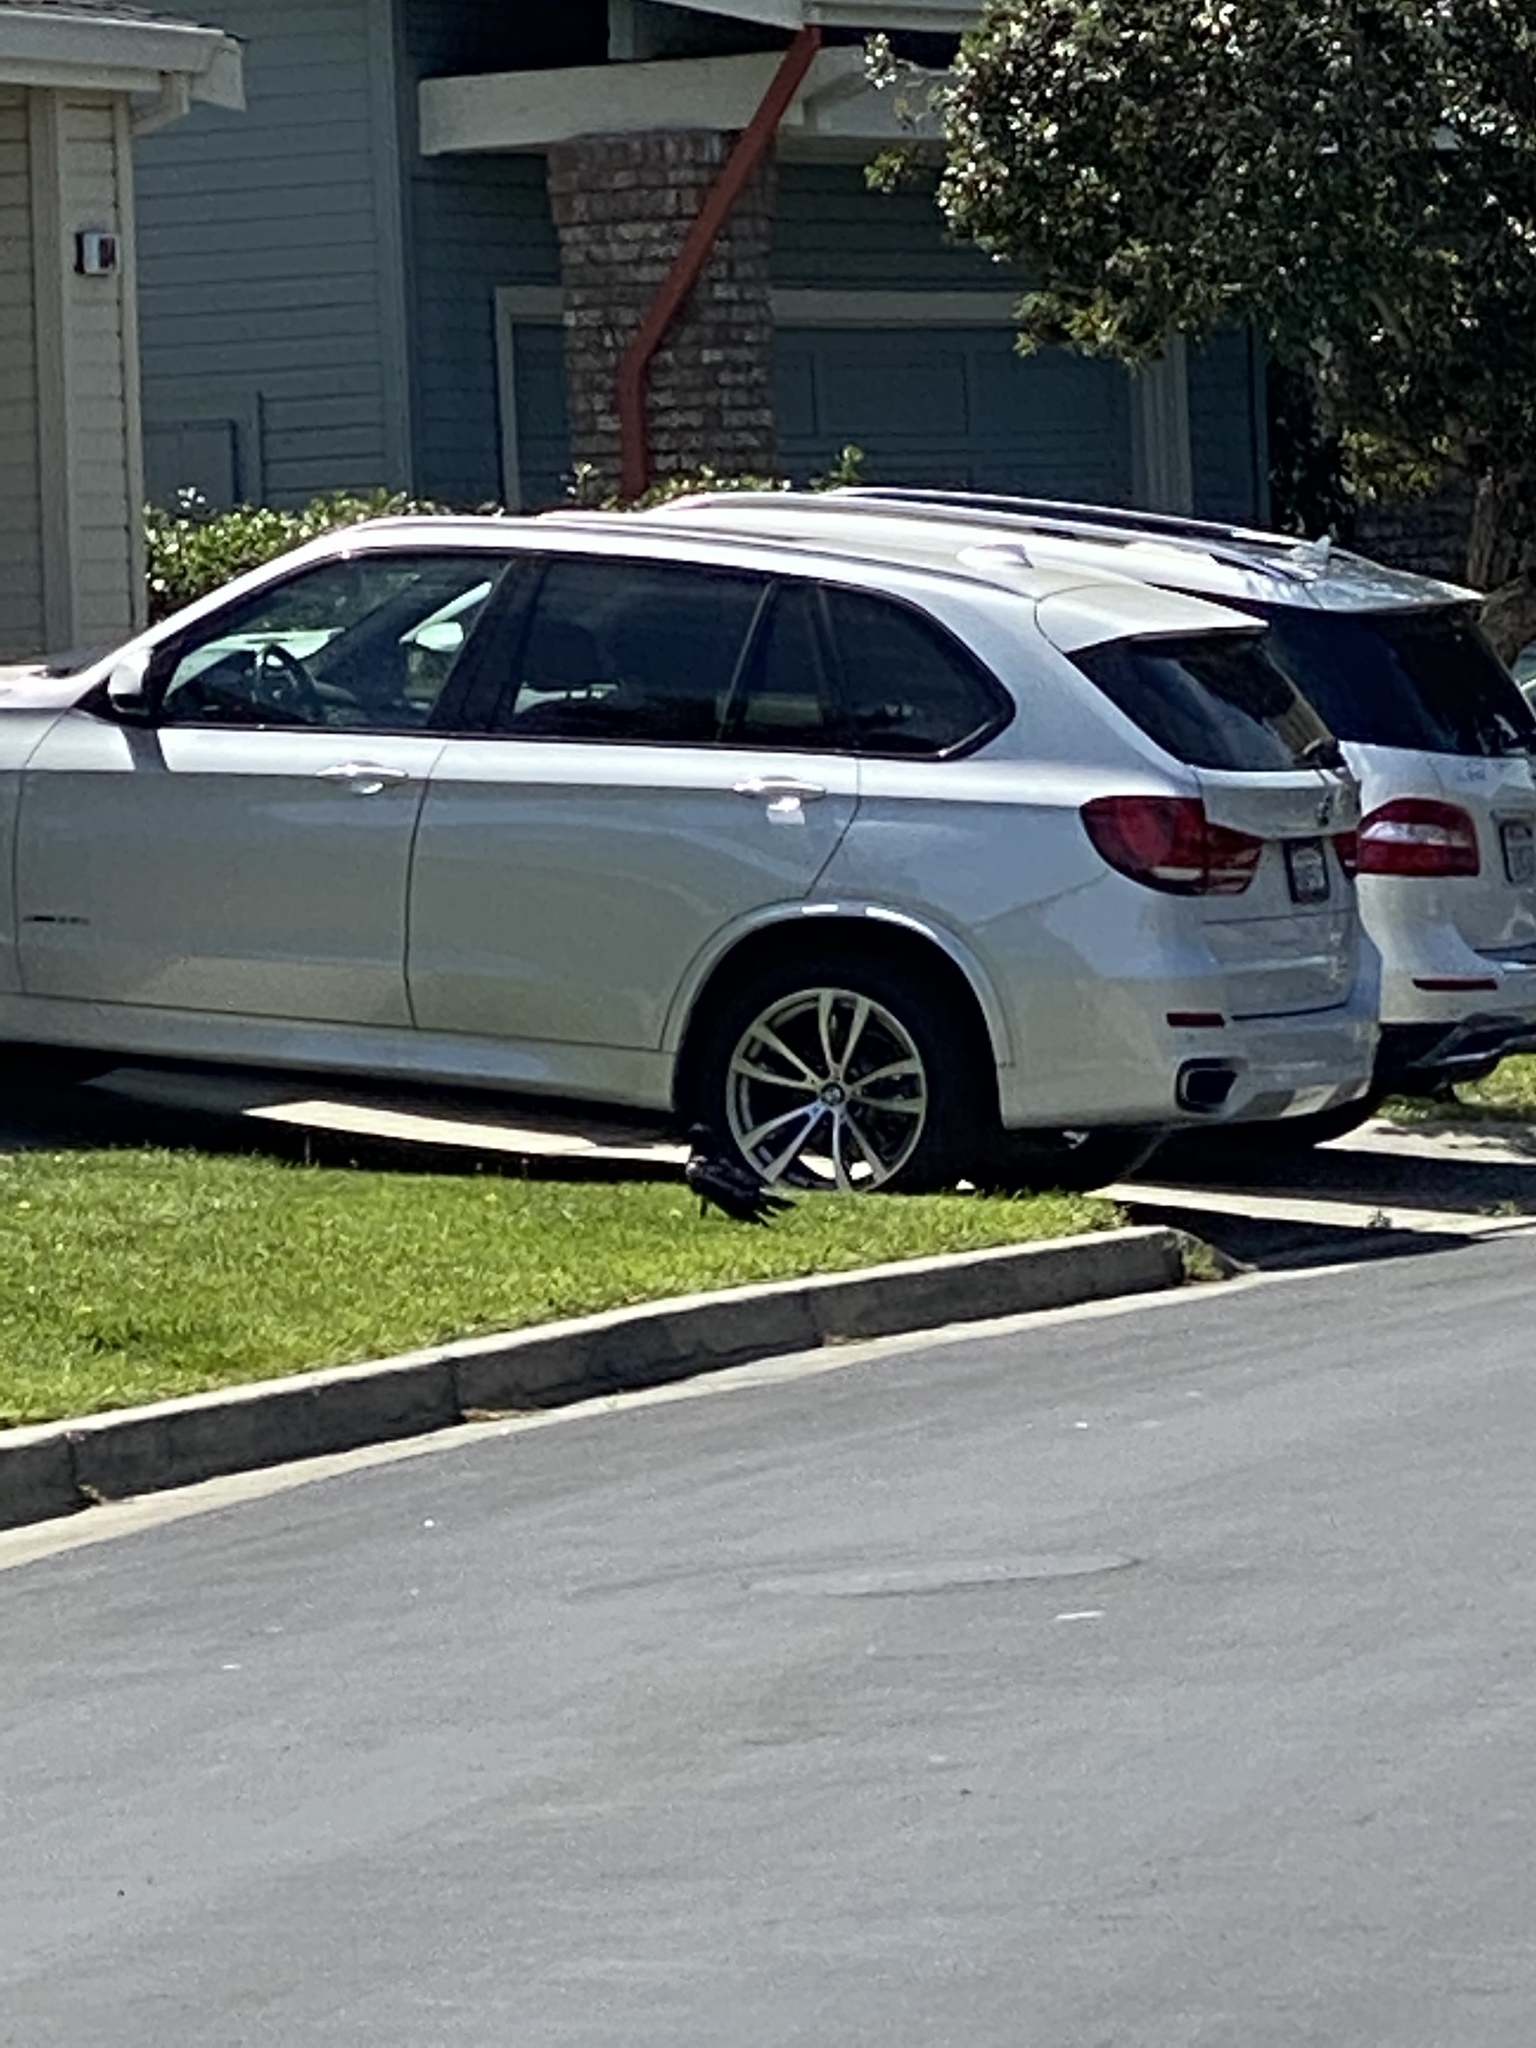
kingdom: Animalia
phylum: Chordata
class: Aves
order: Passeriformes
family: Corvidae
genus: Corvus
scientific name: Corvus brachyrhynchos
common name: American crow
